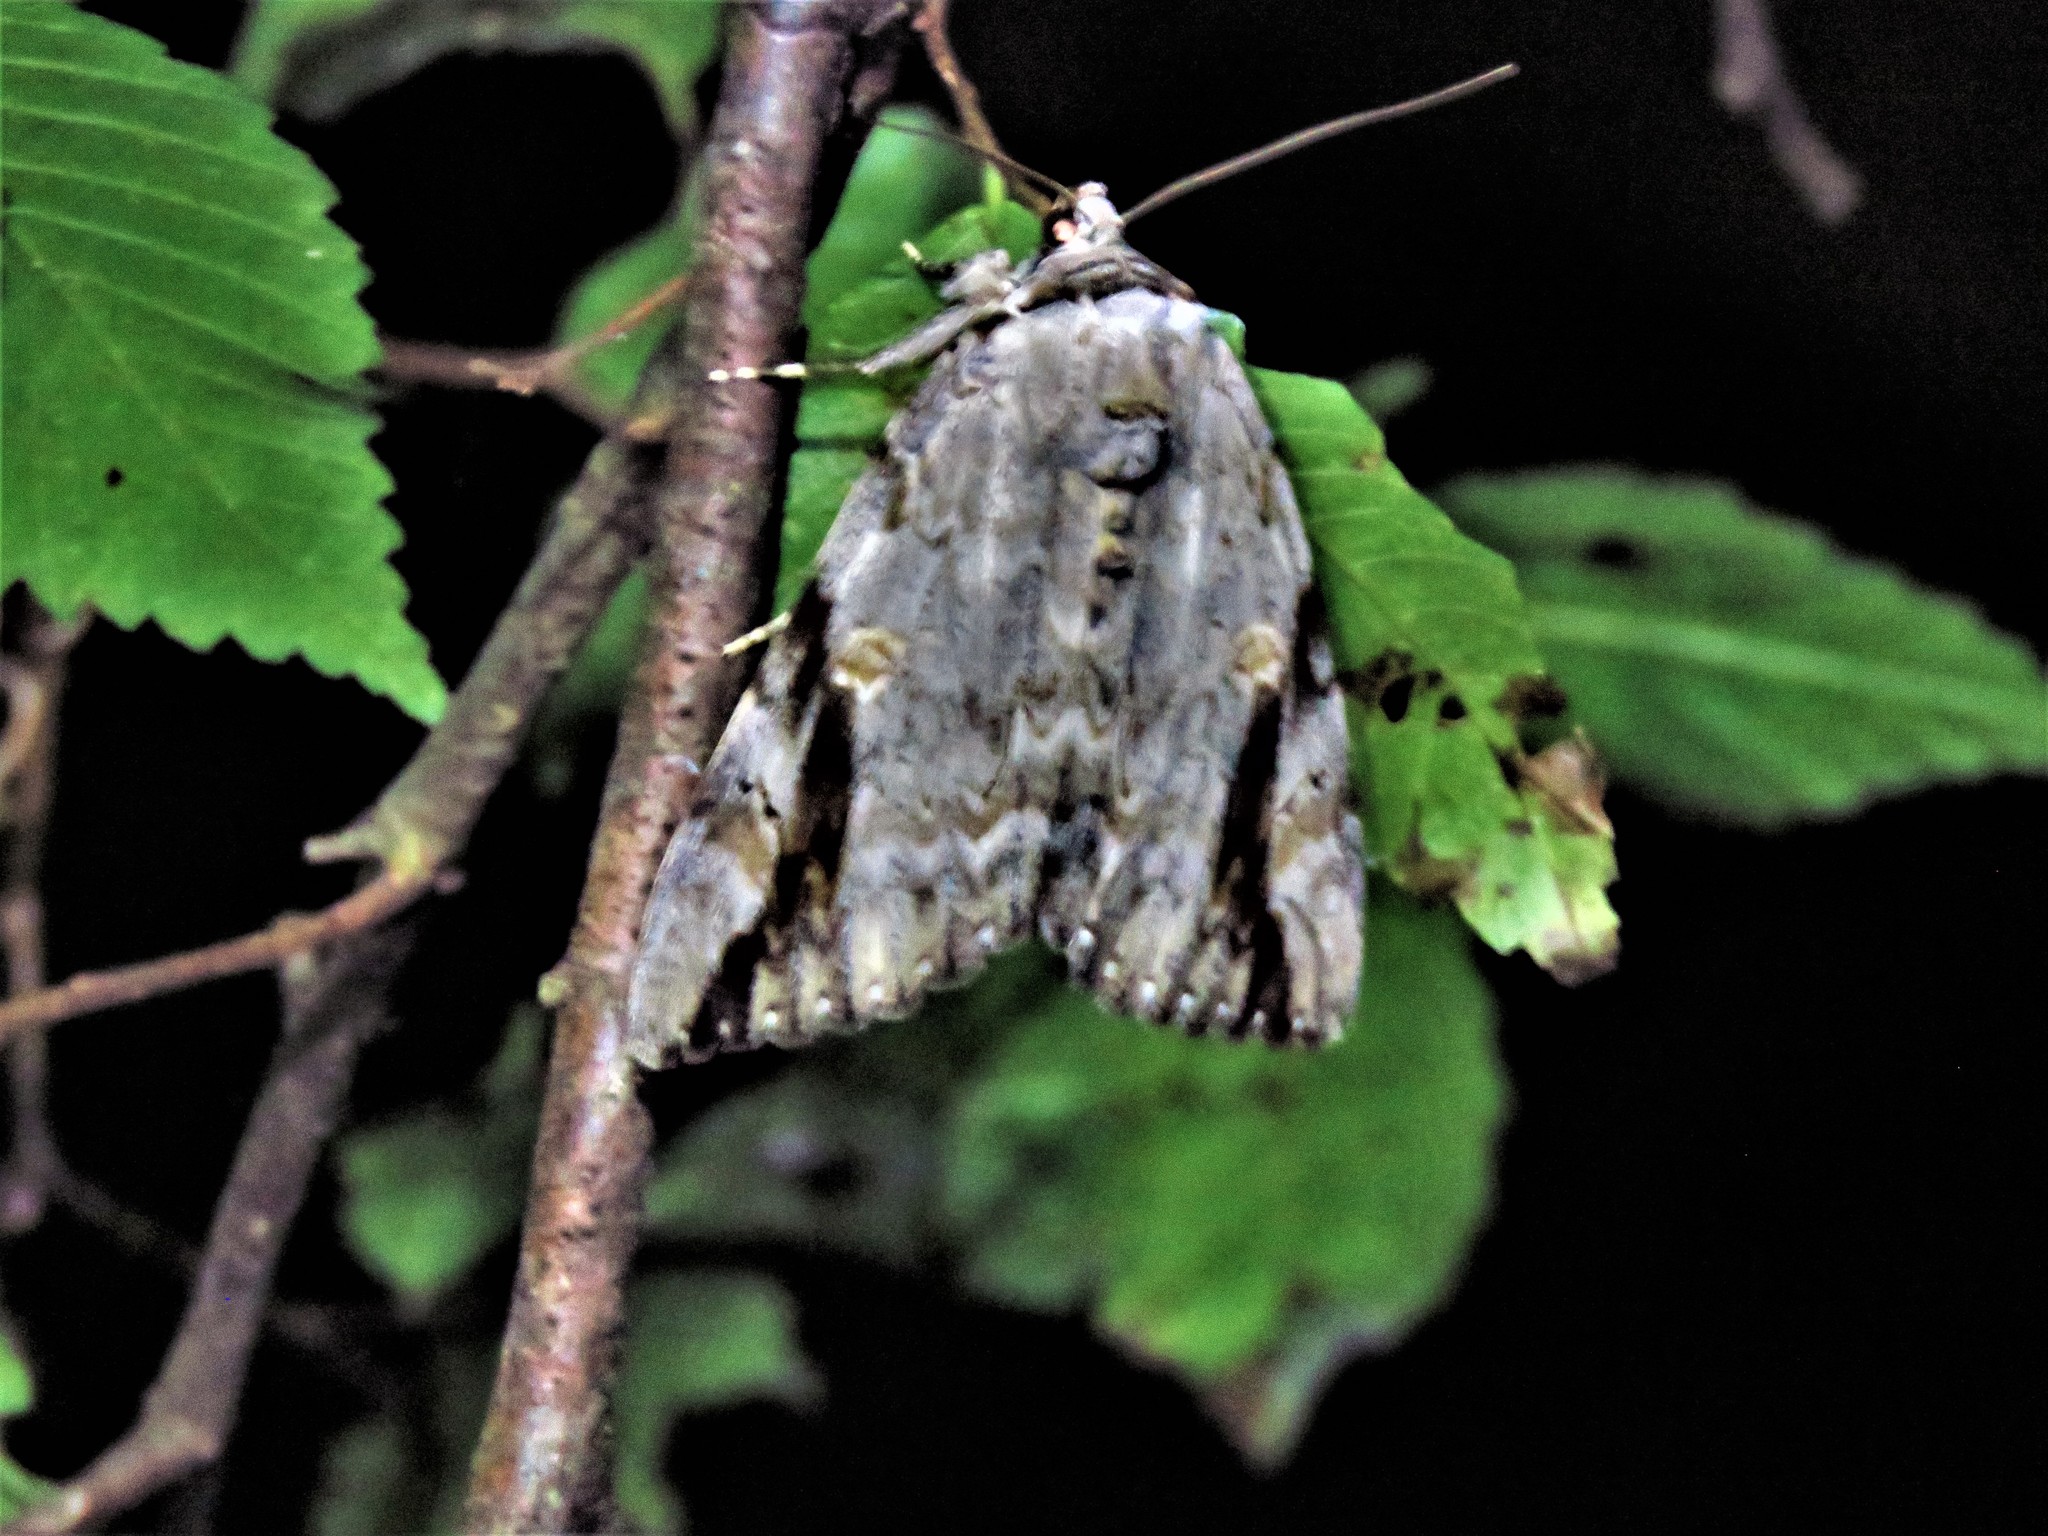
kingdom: Animalia
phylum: Arthropoda
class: Insecta
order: Lepidoptera
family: Erebidae
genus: Catocala
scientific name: Catocala maestosa
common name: Sad underwing
